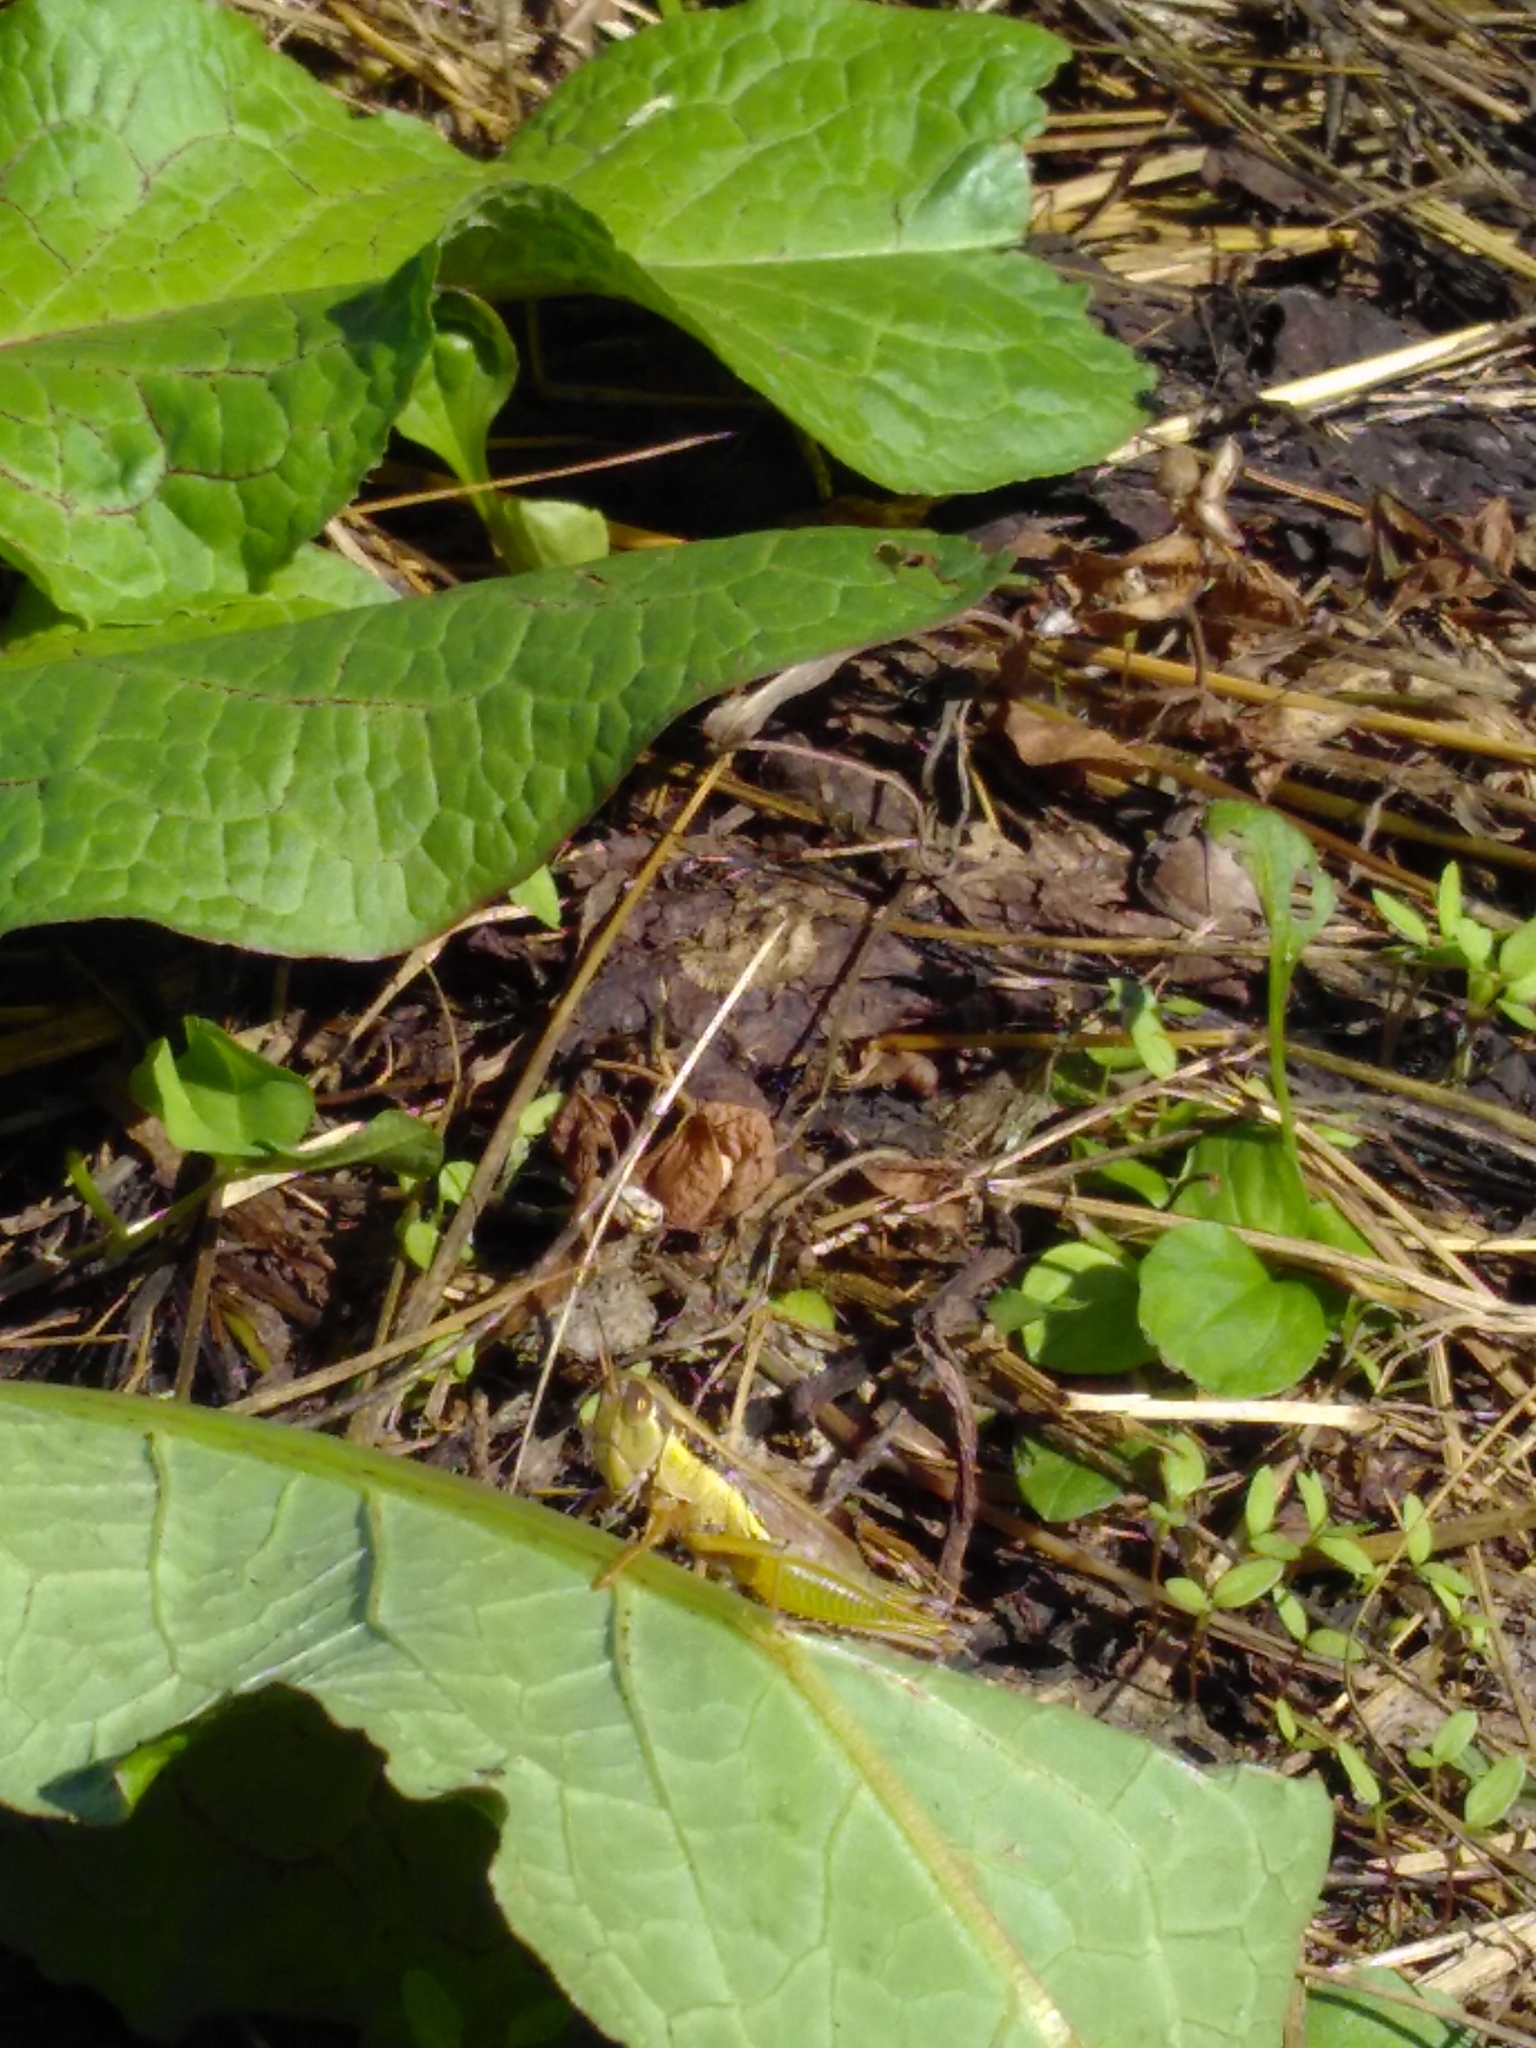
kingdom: Animalia
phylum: Arthropoda
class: Insecta
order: Orthoptera
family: Acrididae
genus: Oxya
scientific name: Oxya yezoensis
